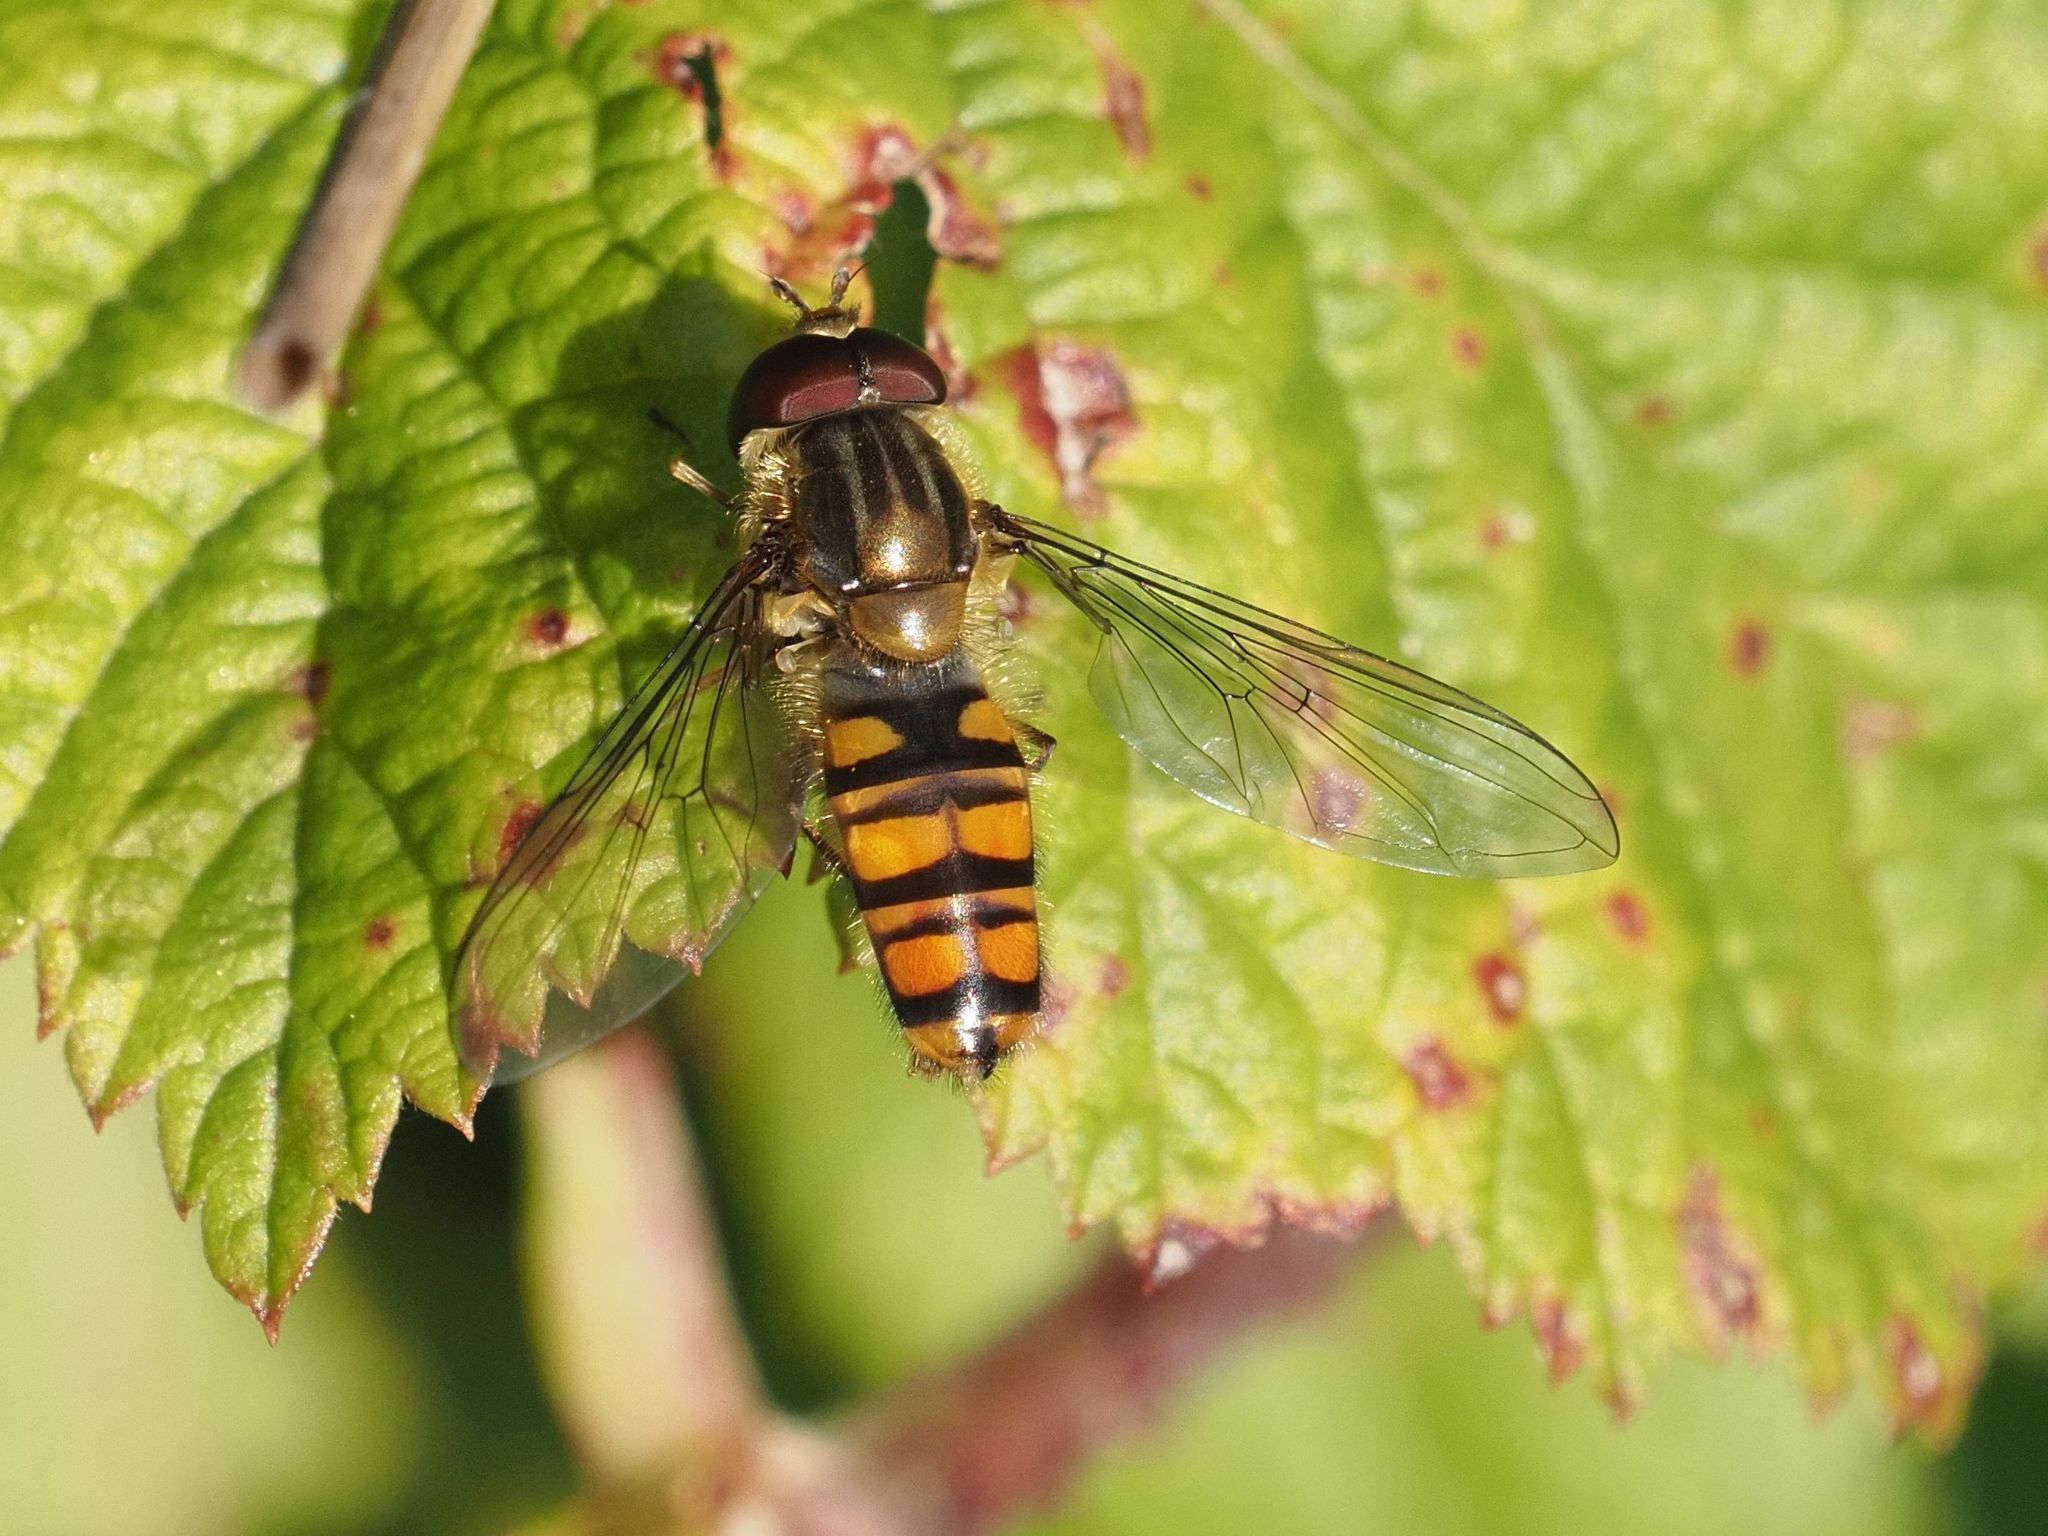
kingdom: Animalia
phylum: Arthropoda
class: Insecta
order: Diptera
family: Syrphidae
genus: Episyrphus
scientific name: Episyrphus balteatus
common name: Marmalade hoverfly
